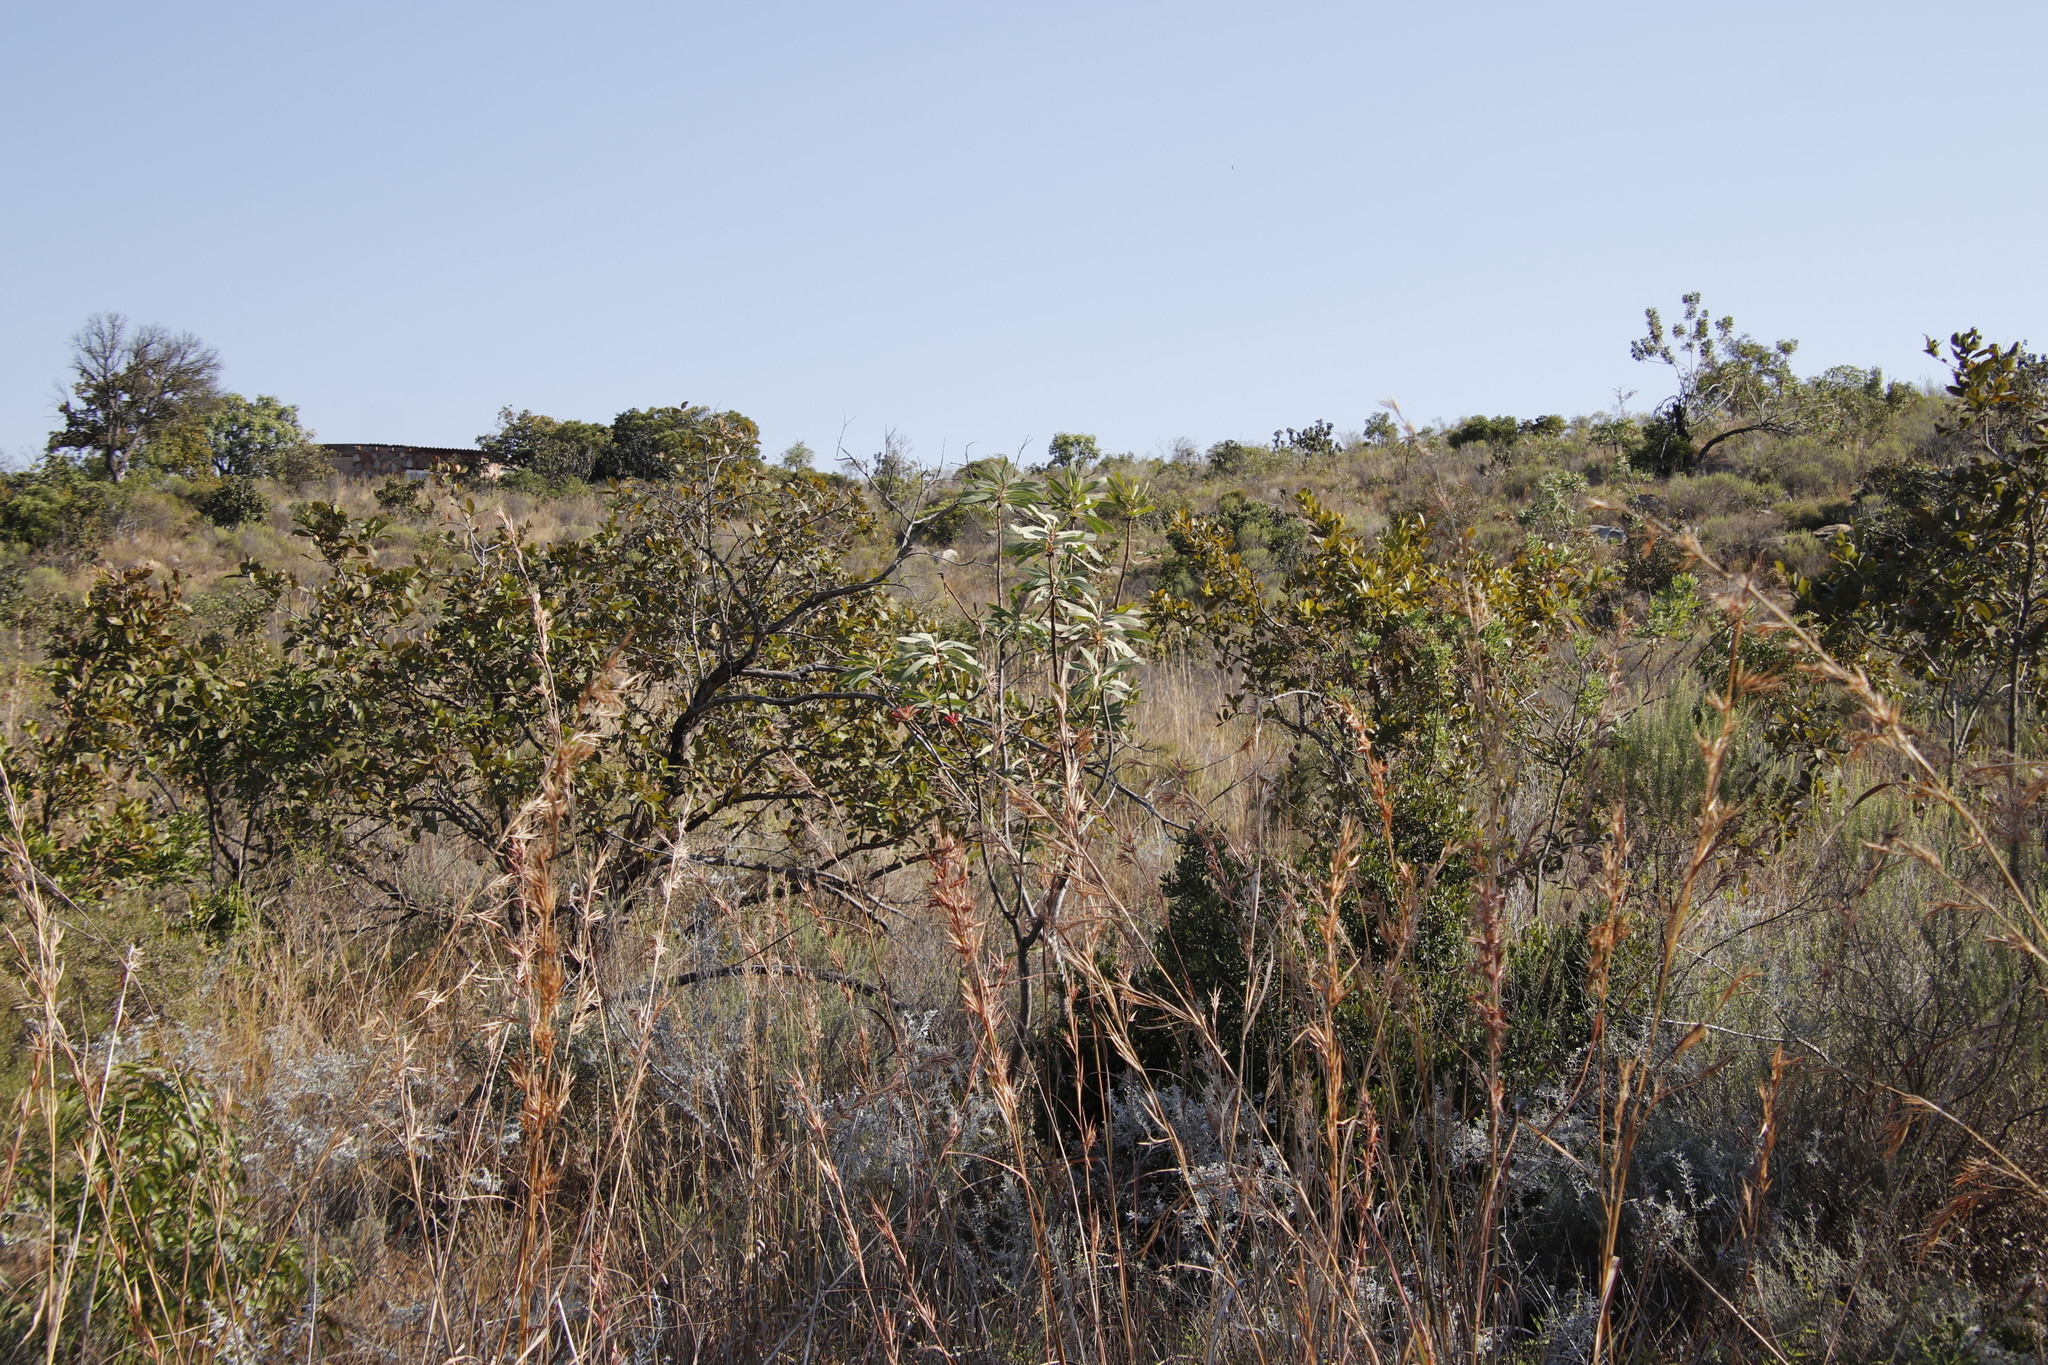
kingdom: Plantae
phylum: Tracheophyta
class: Magnoliopsida
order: Proteales
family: Proteaceae
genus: Protea
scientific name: Protea laetans
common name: Blyde protea
